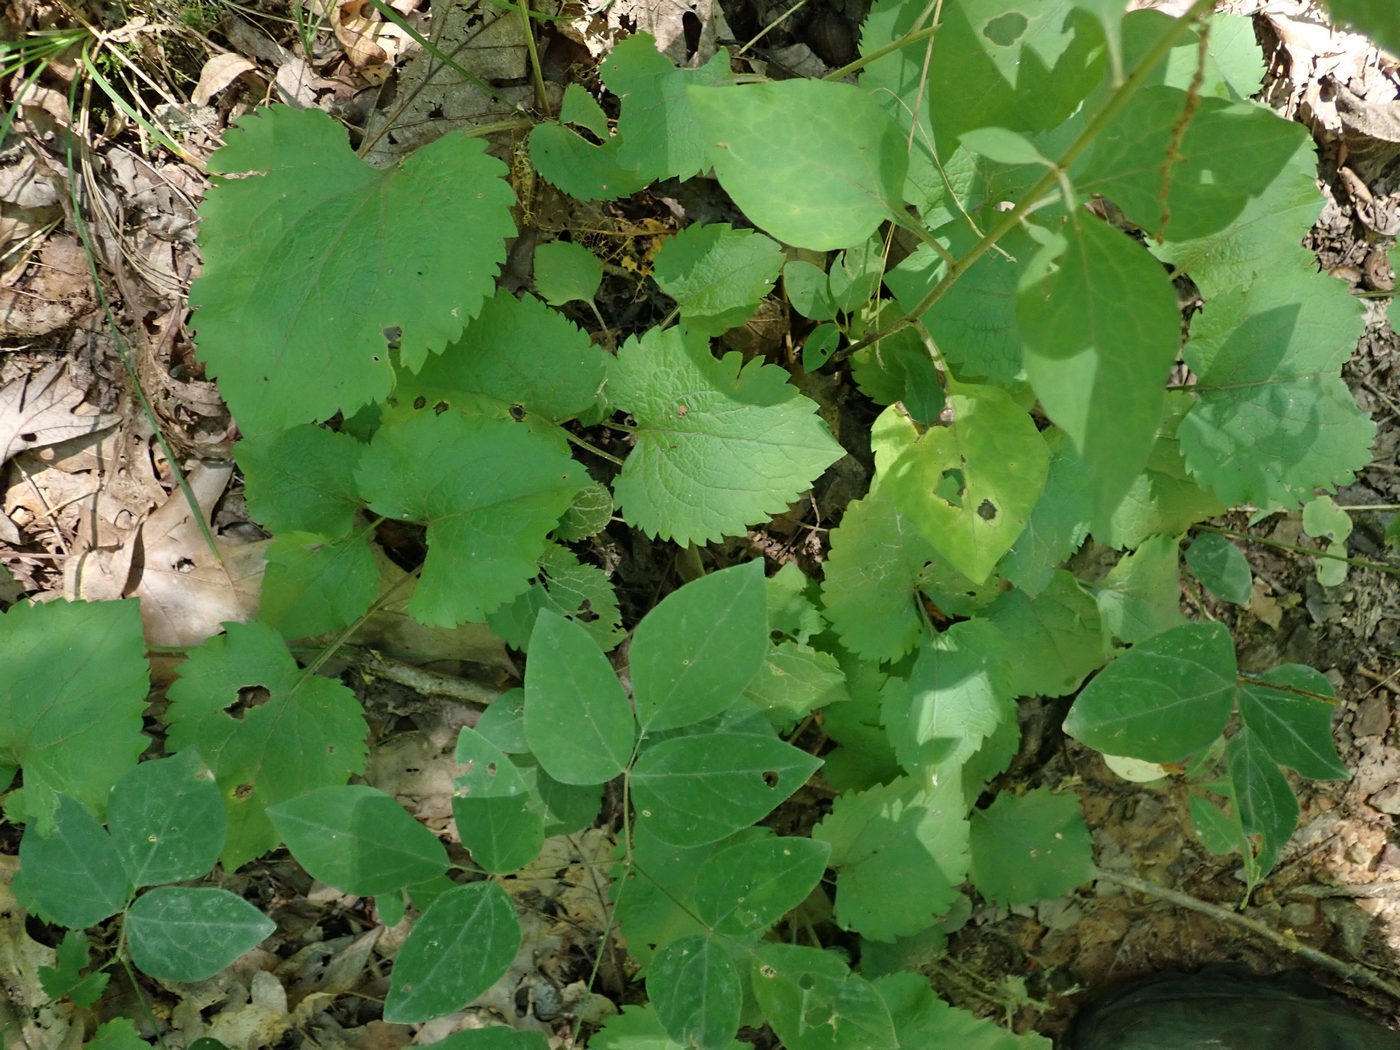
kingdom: Plantae
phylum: Tracheophyta
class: Magnoliopsida
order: Asterales
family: Asteraceae
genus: Solidago
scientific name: Solidago sphacelata
